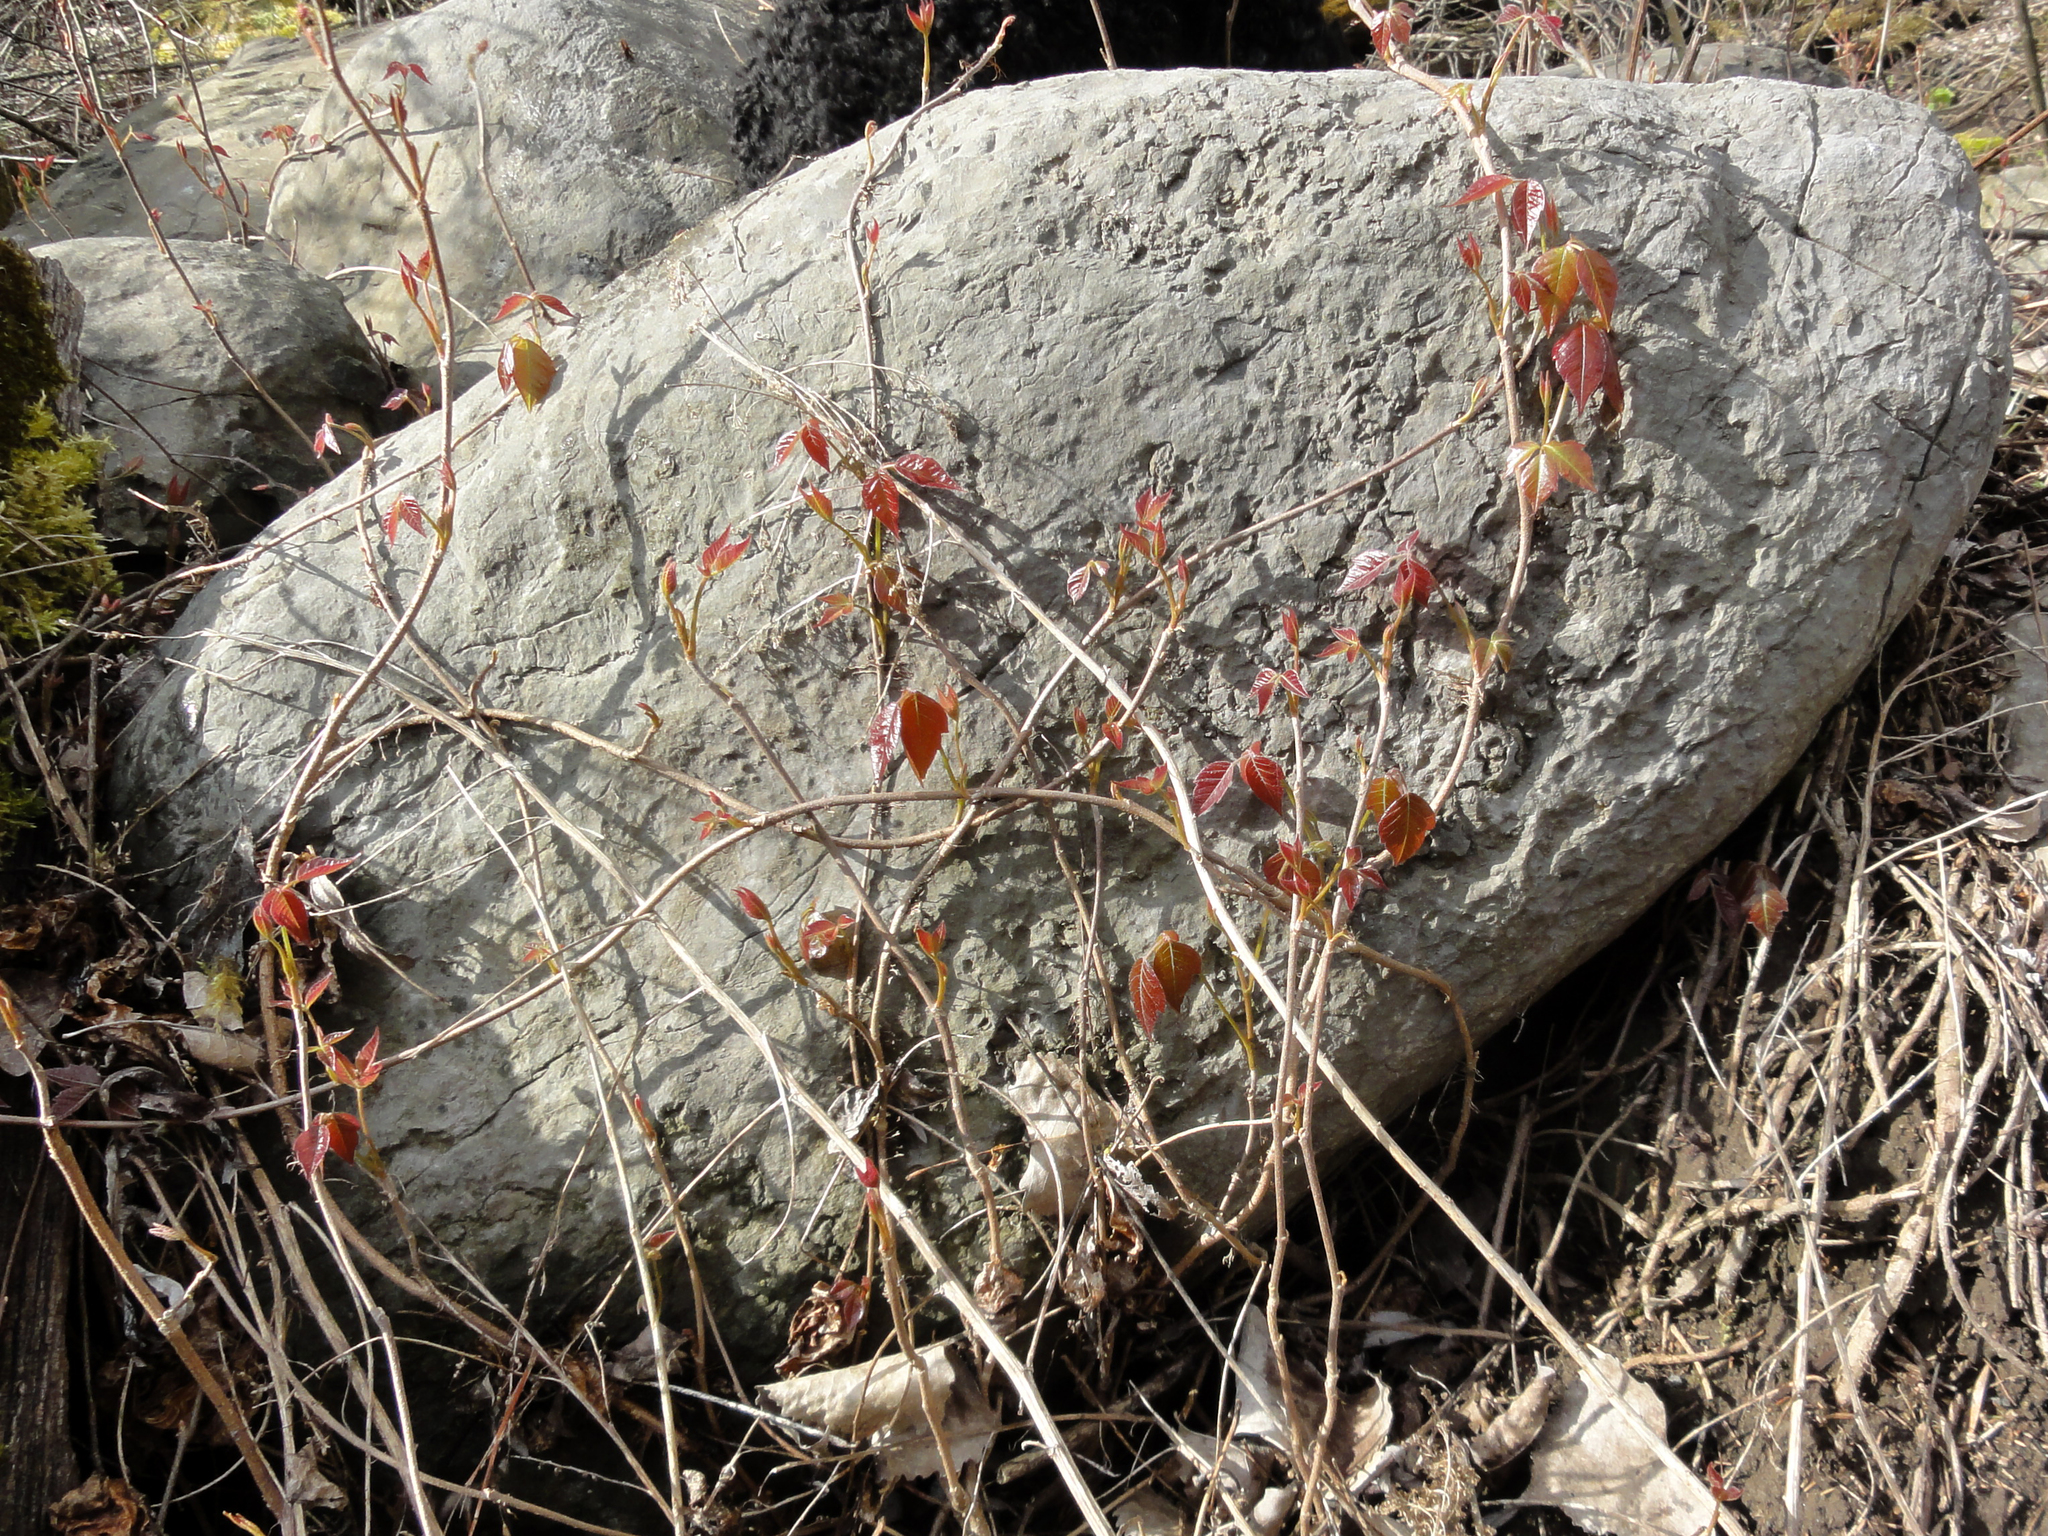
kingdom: Plantae
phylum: Tracheophyta
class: Magnoliopsida
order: Sapindales
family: Anacardiaceae
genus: Toxicodendron
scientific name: Toxicodendron radicans
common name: Poison ivy
